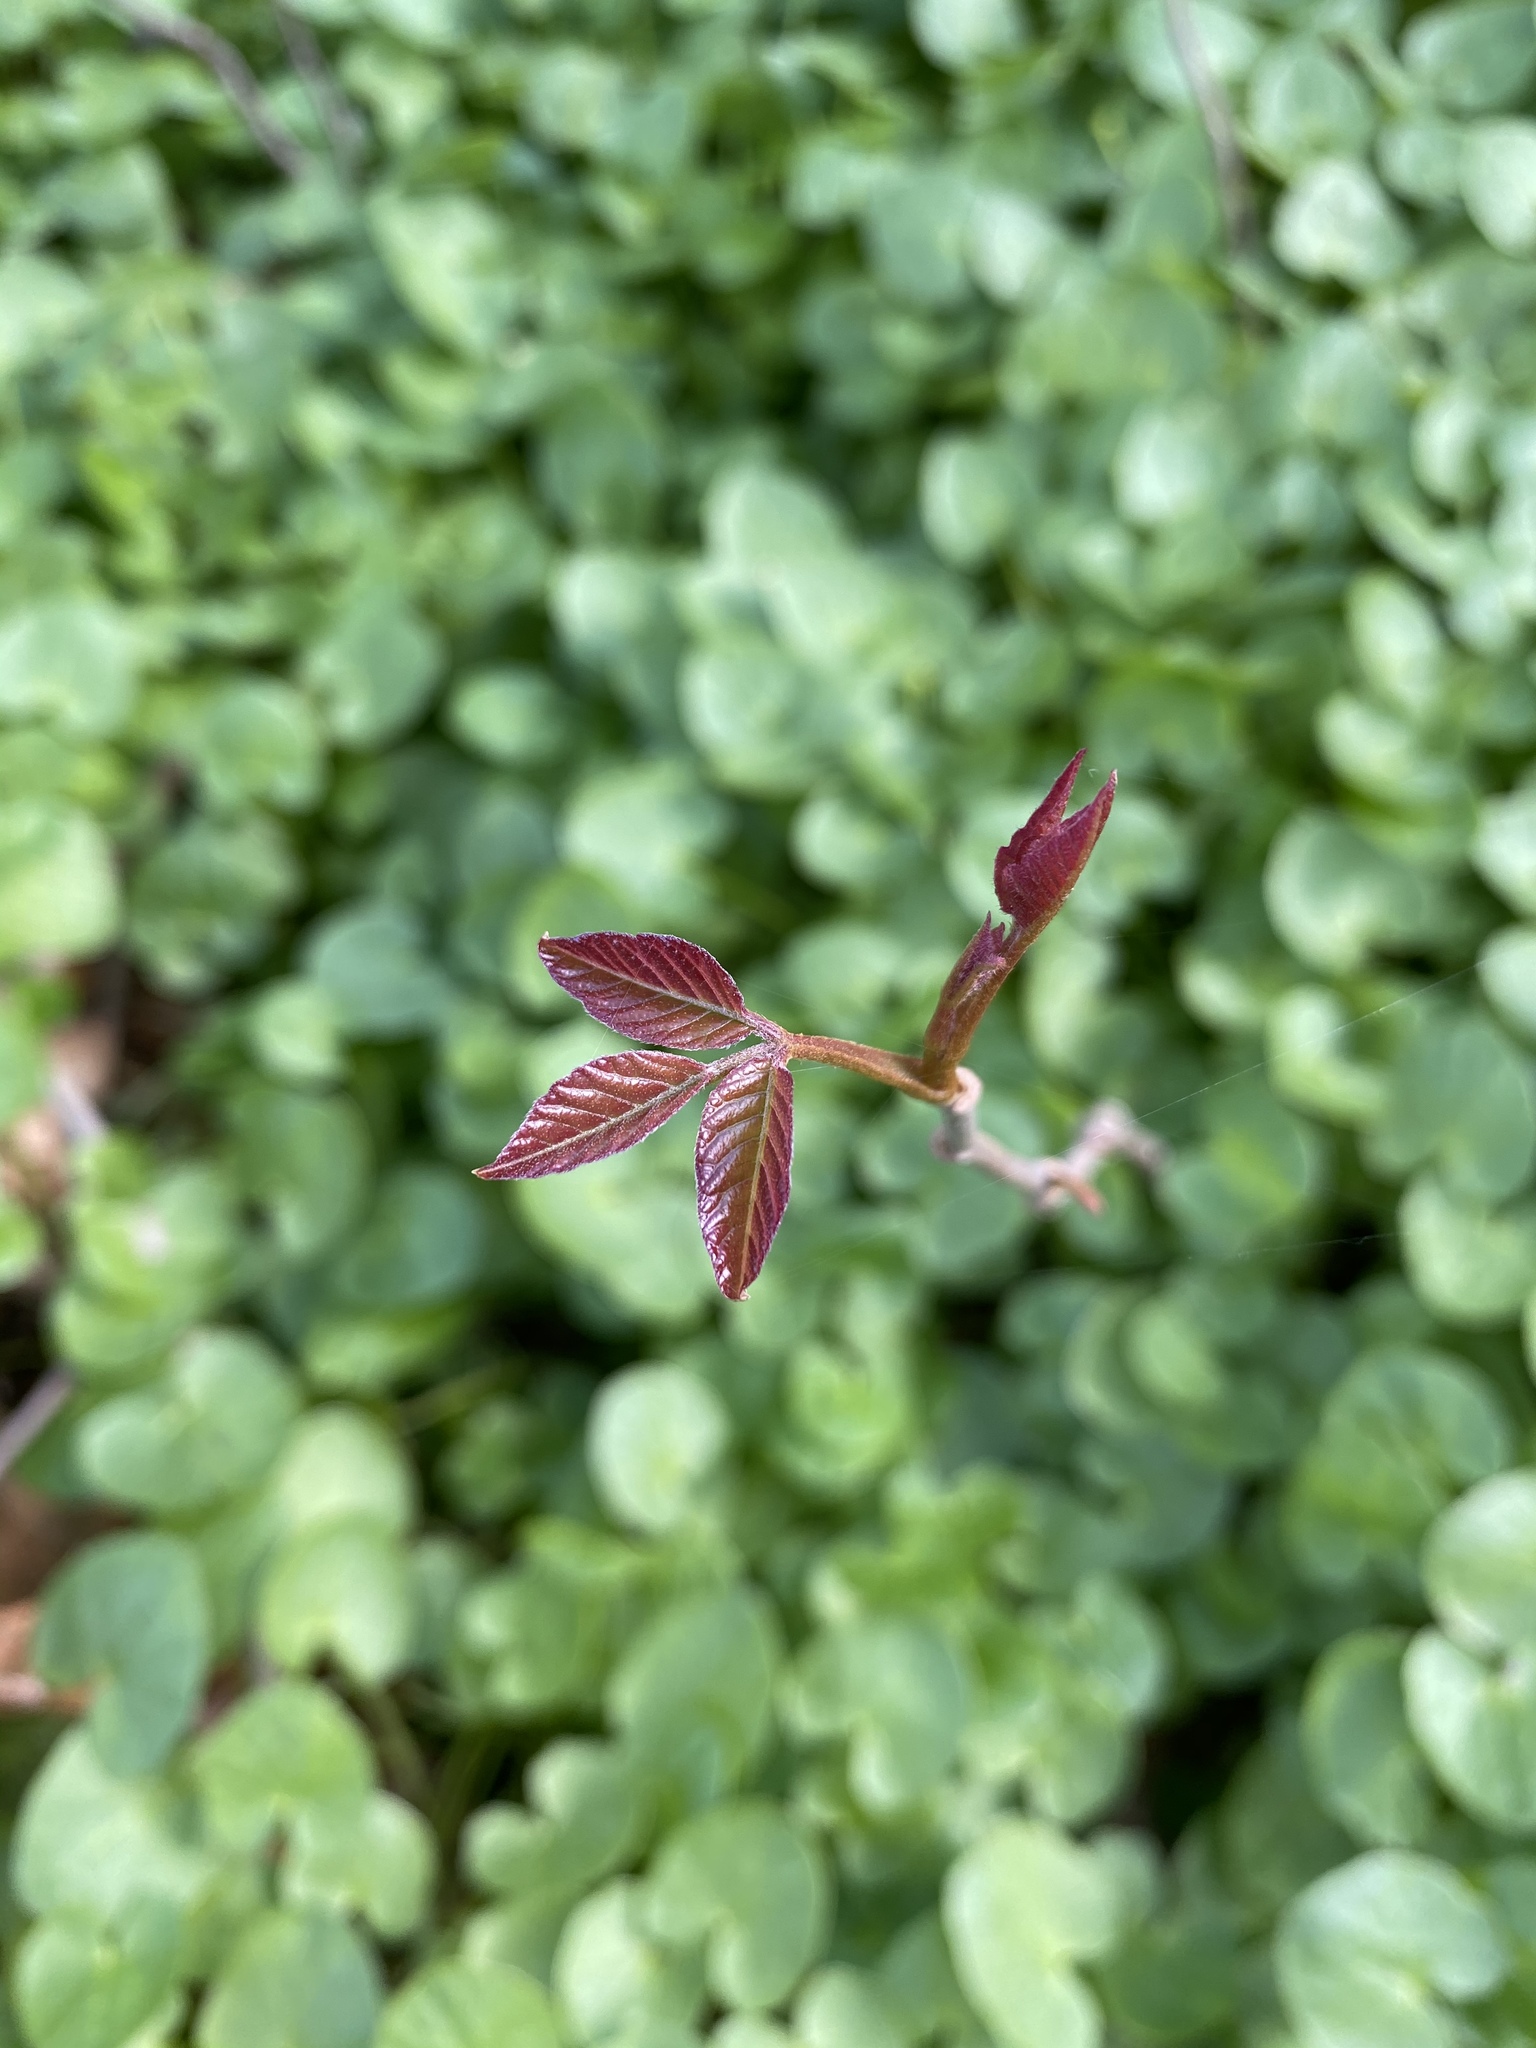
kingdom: Plantae
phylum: Tracheophyta
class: Magnoliopsida
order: Sapindales
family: Anacardiaceae
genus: Toxicodendron
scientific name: Toxicodendron radicans
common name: Poison ivy
